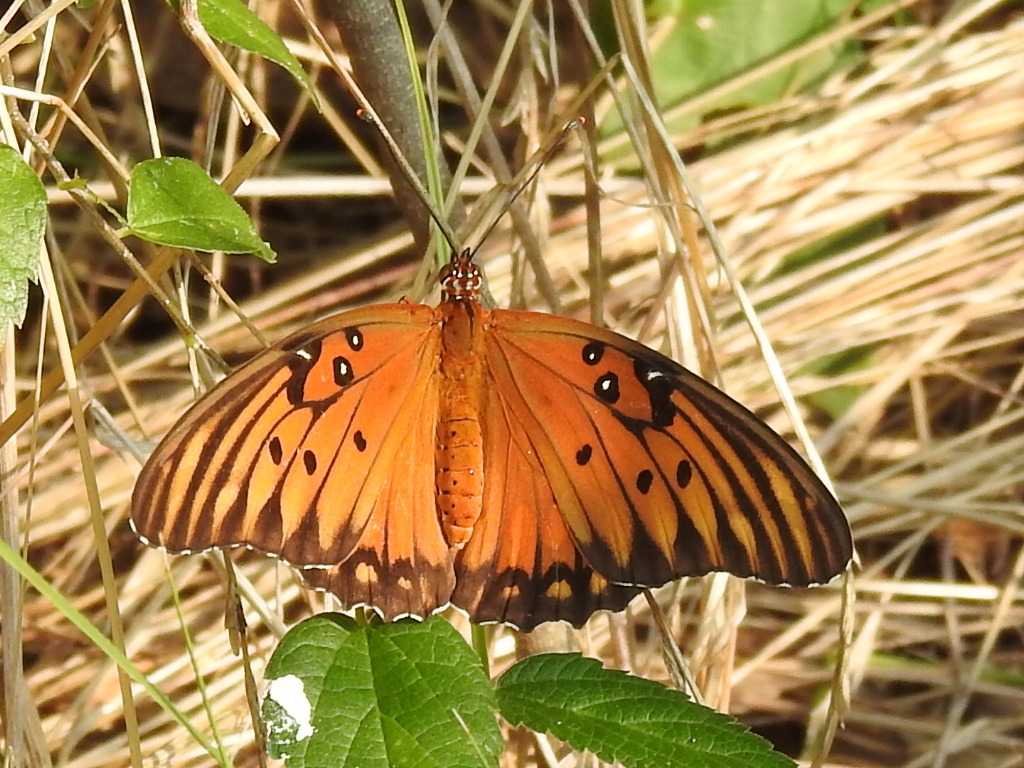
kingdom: Animalia
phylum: Arthropoda
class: Insecta
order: Lepidoptera
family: Nymphalidae
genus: Dione
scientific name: Dione vanillae
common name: Gulf fritillary
